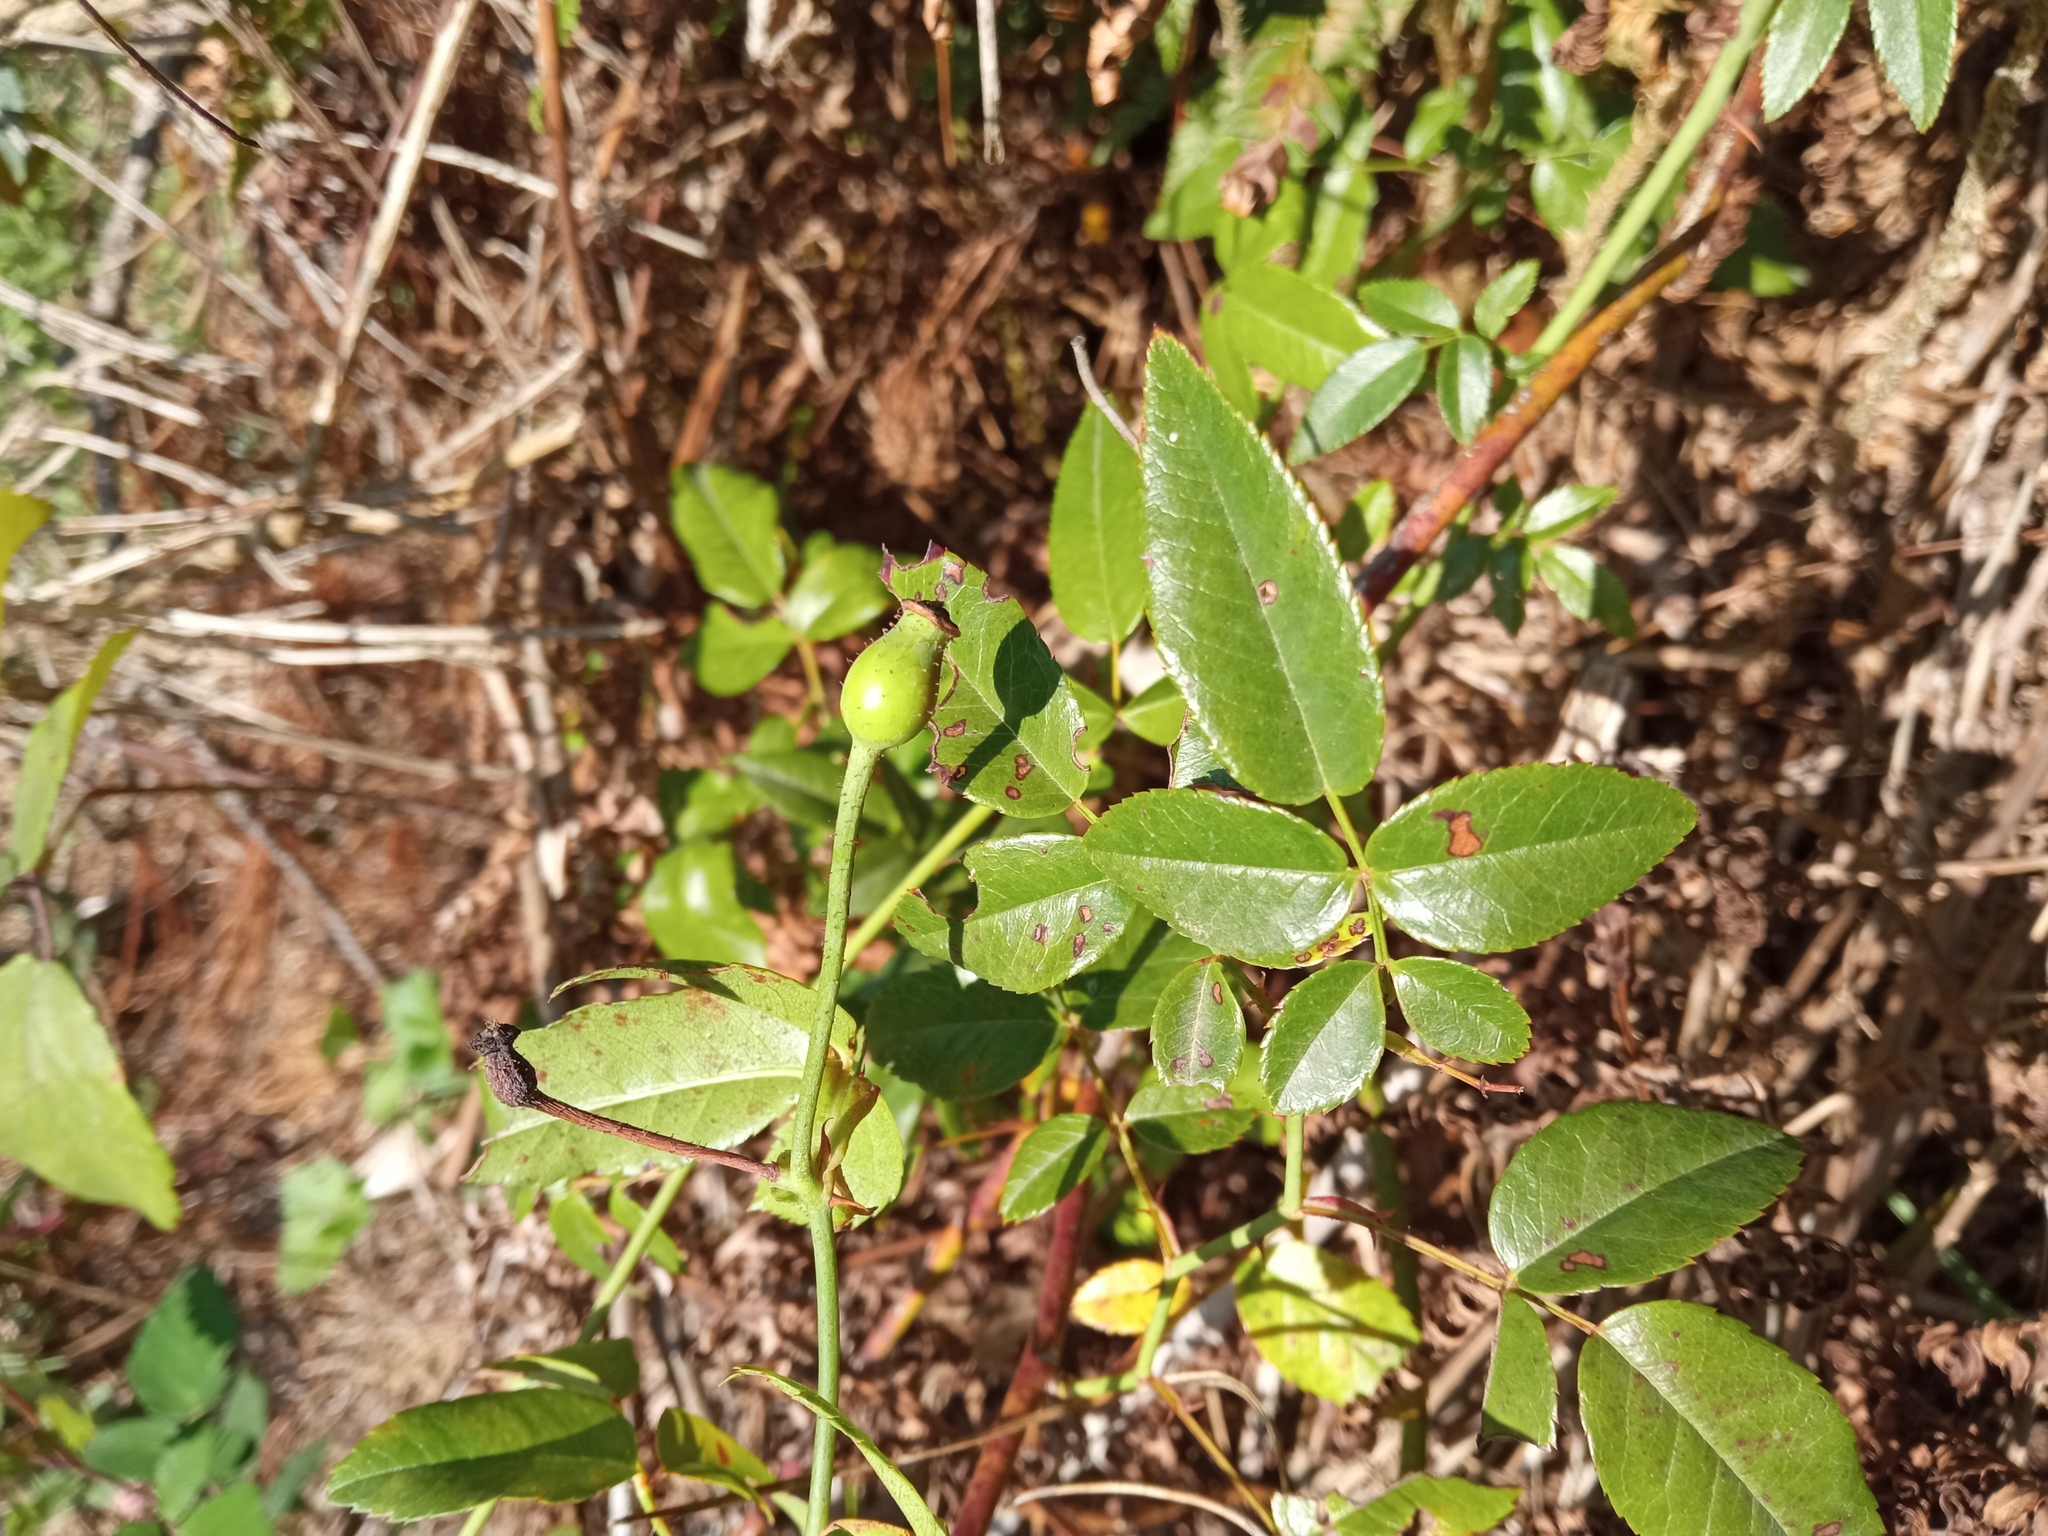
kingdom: Plantae
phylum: Tracheophyta
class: Magnoliopsida
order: Rosales
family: Rosaceae
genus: Rosa
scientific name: Rosa sempervirens
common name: Evergreen rose
